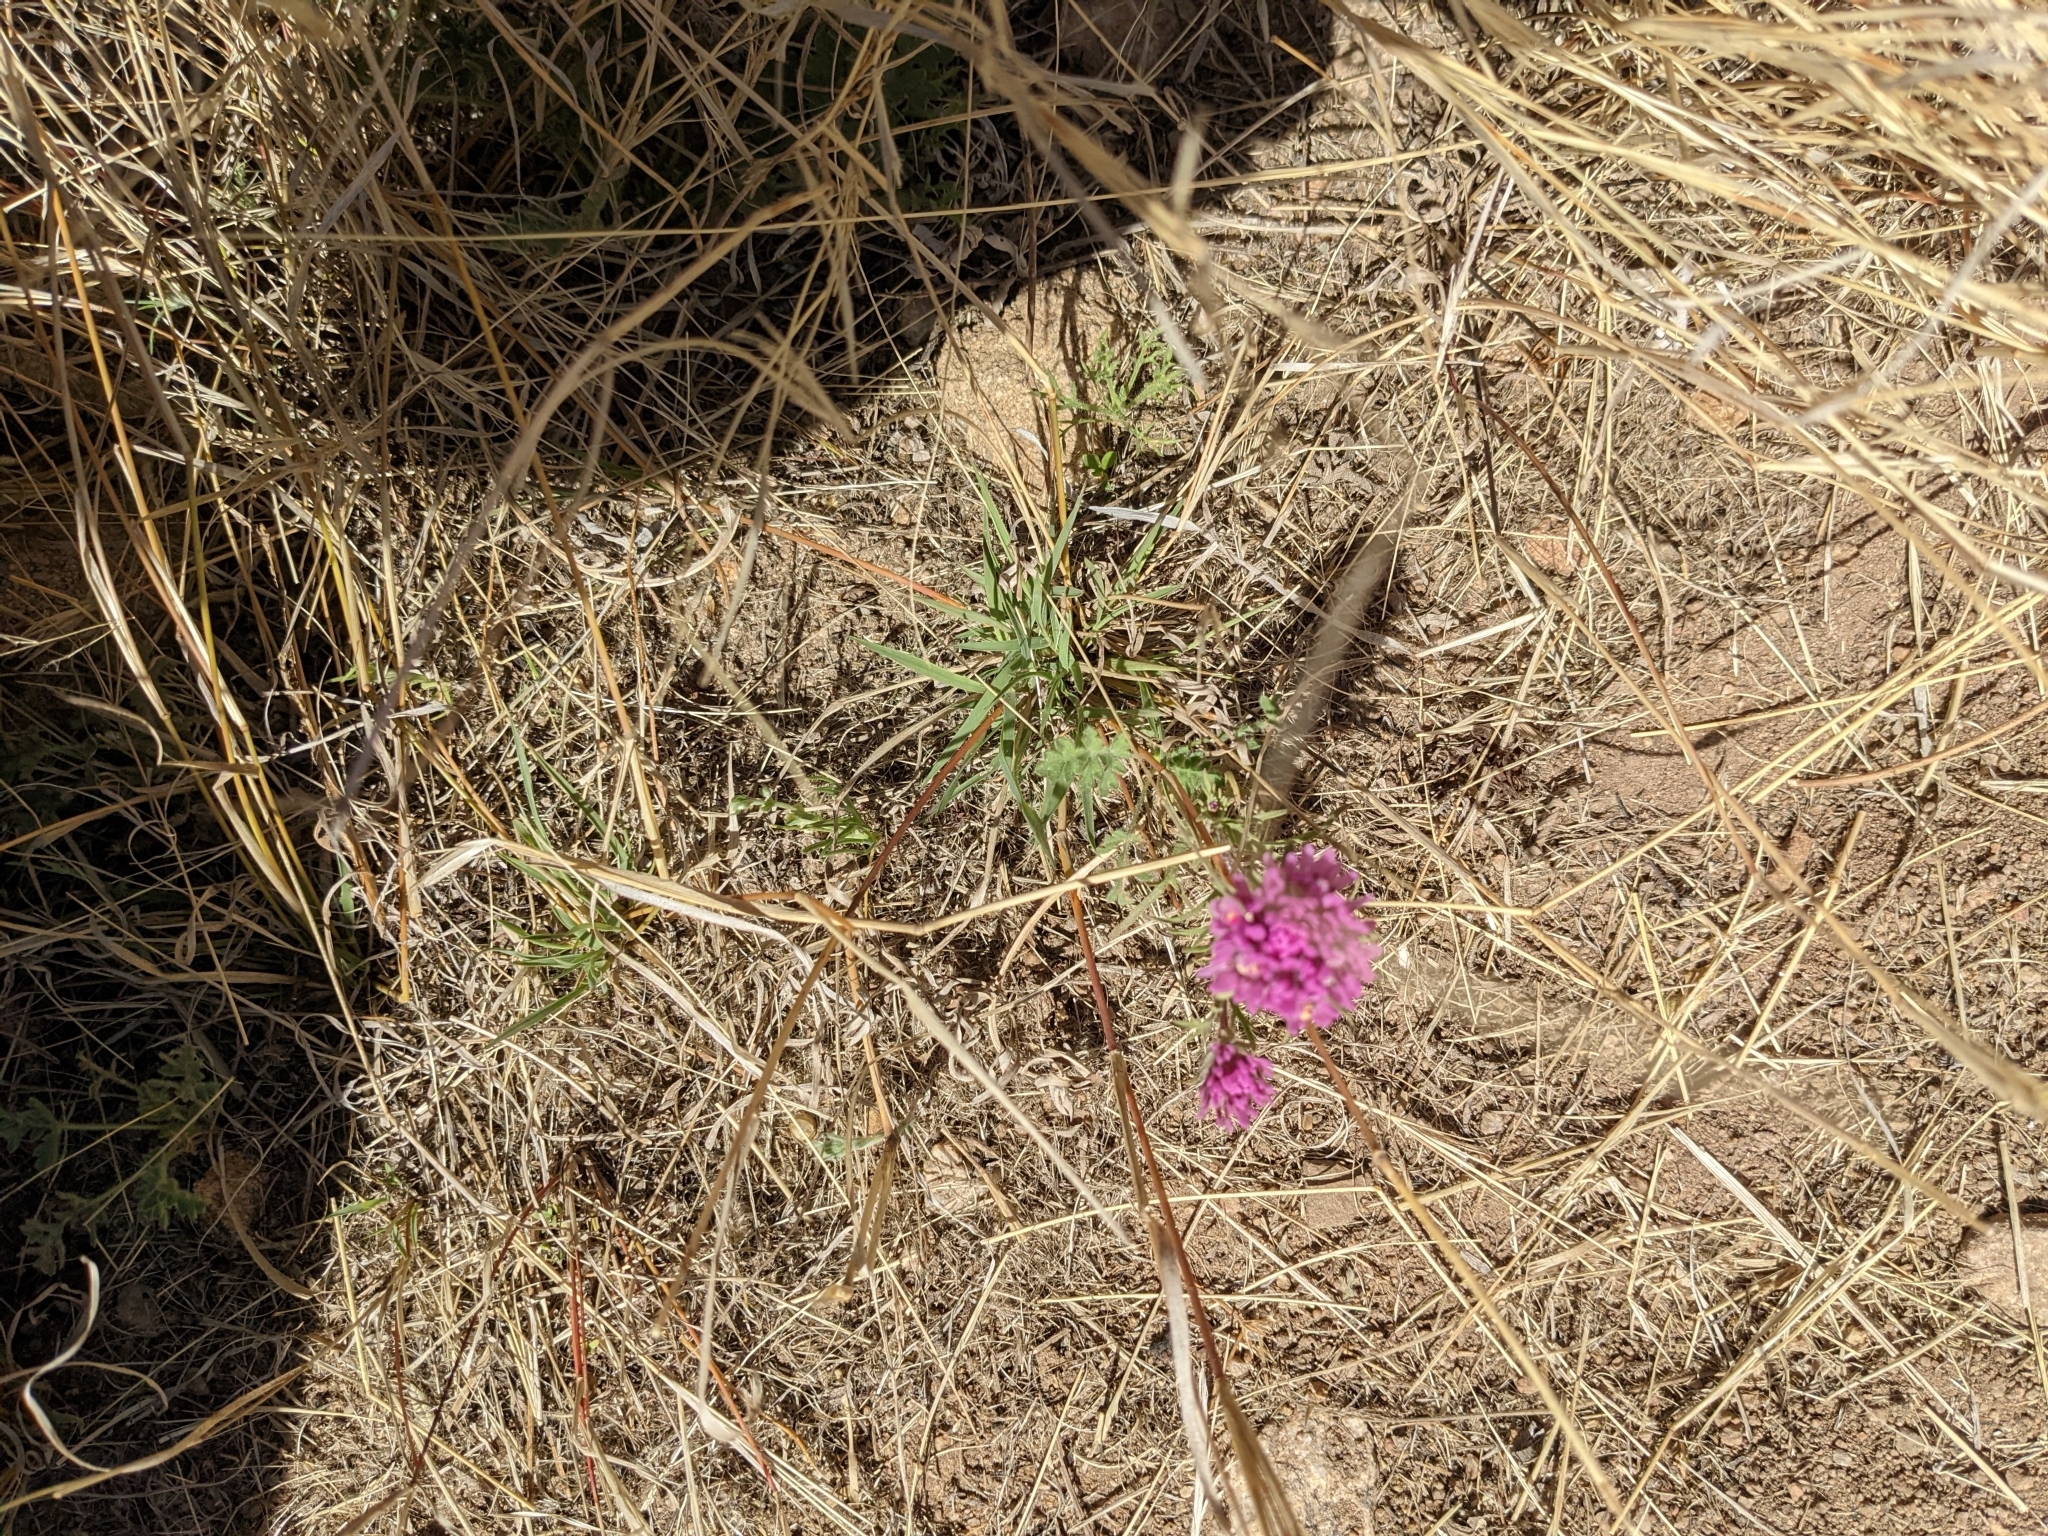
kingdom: Plantae
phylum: Tracheophyta
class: Magnoliopsida
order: Lamiales
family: Orobanchaceae
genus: Castilleja
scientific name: Castilleja exserta
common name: Purple owl-clover
